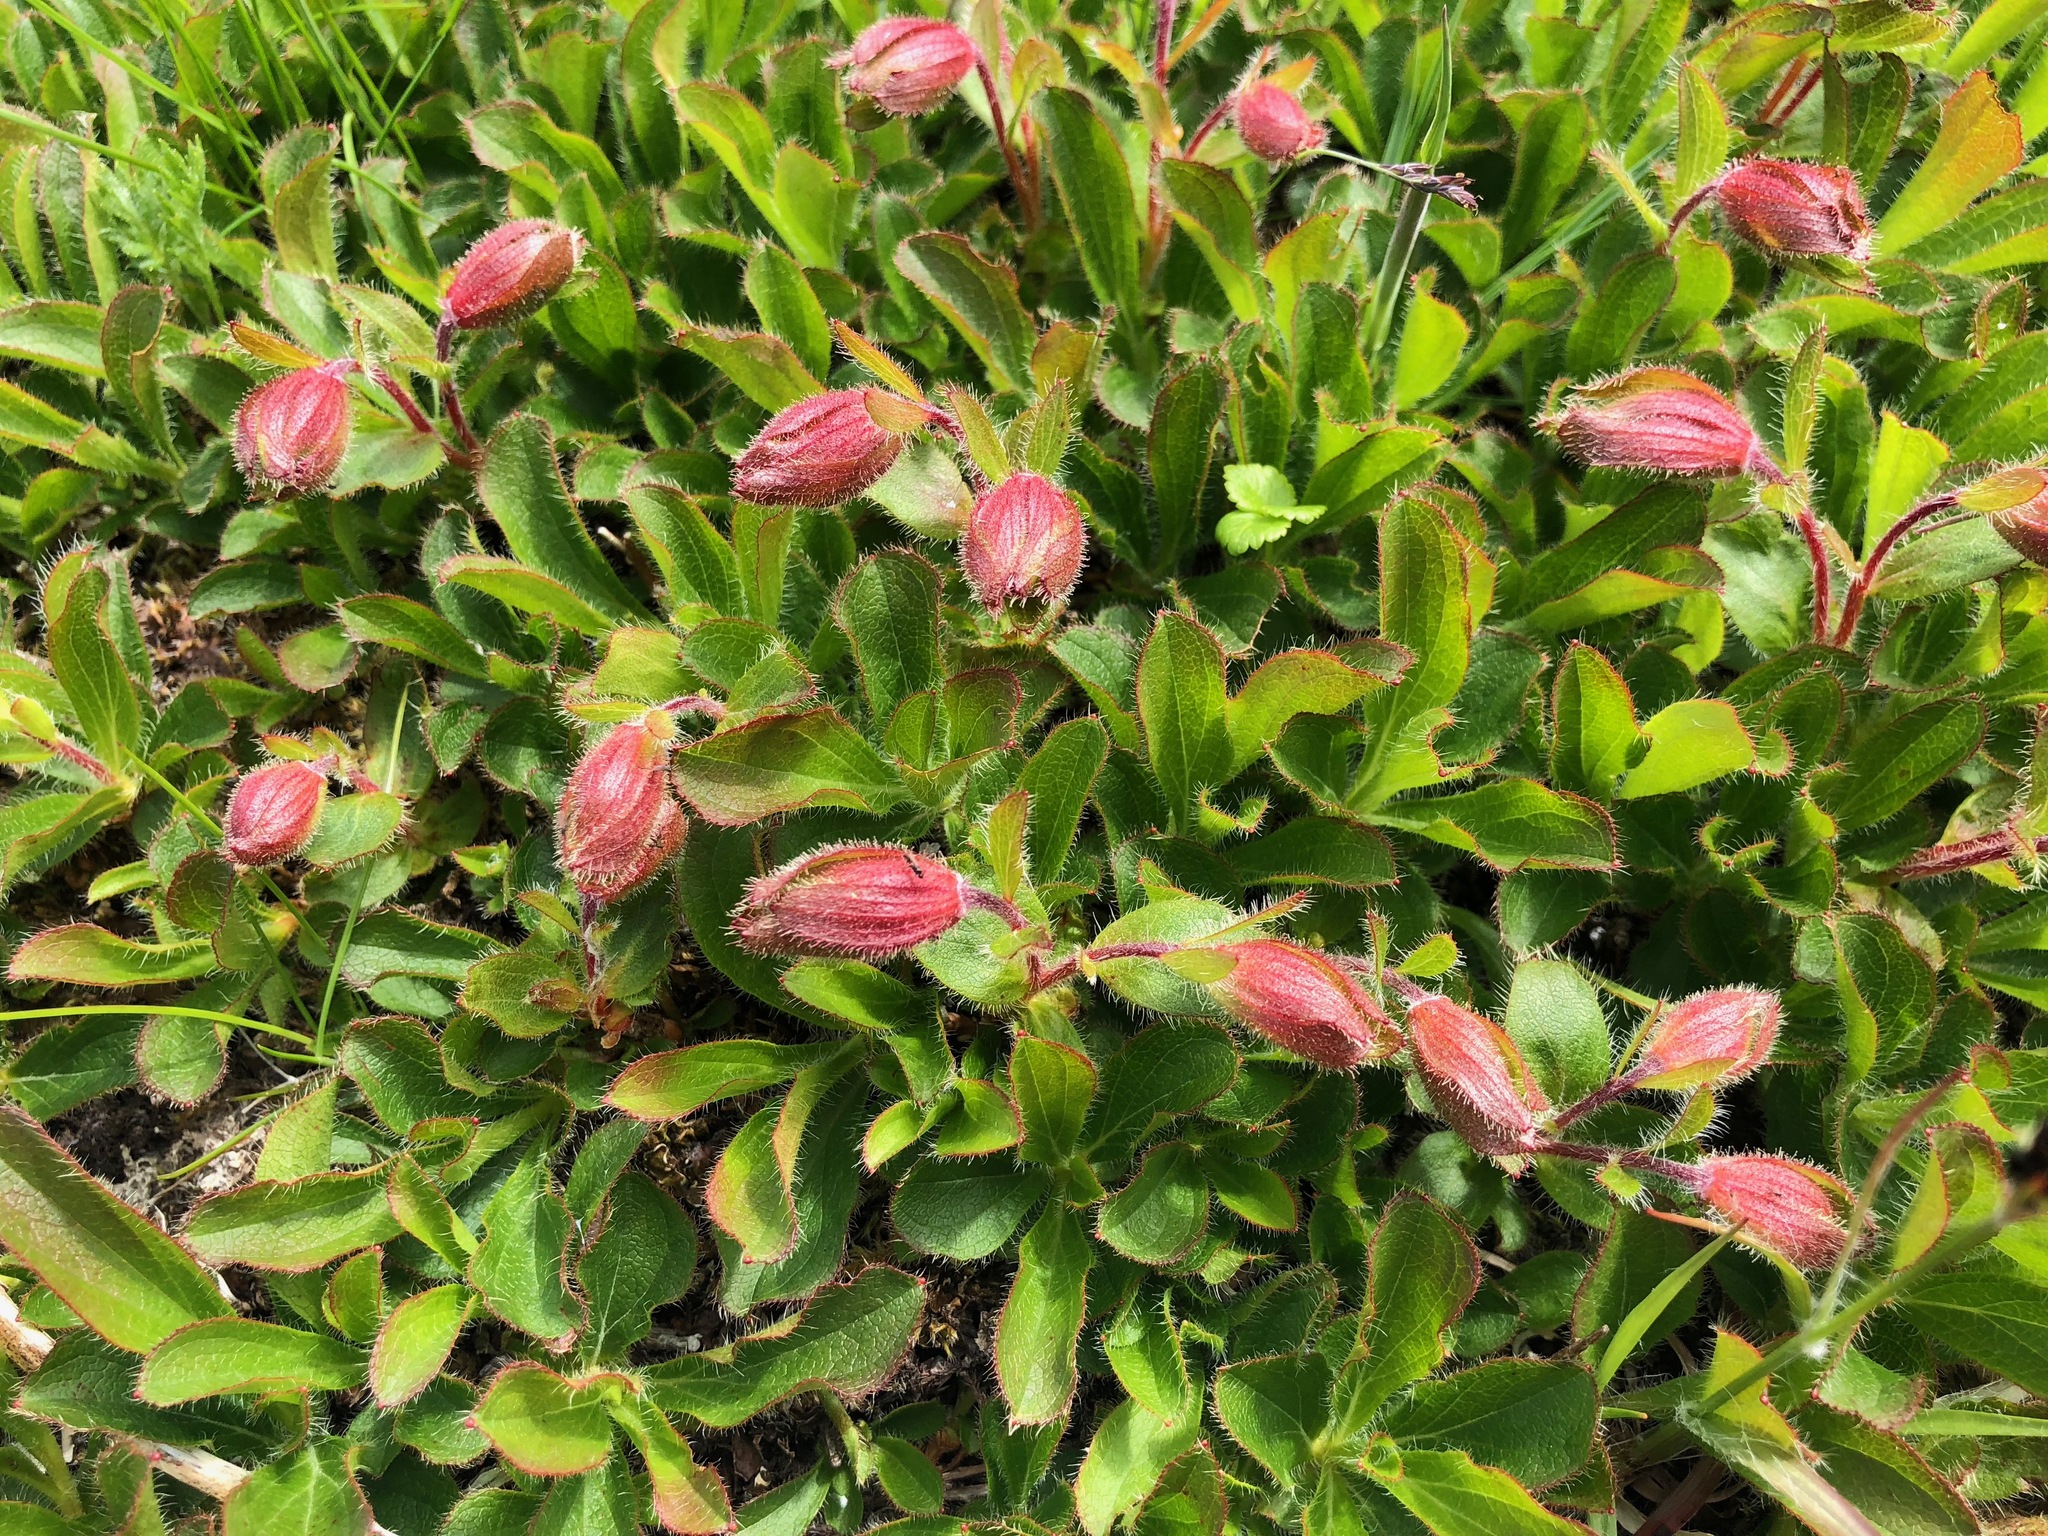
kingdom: Plantae
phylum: Tracheophyta
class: Magnoliopsida
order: Ericales
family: Ericaceae
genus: Rhododendron
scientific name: Rhododendron camtschaticum
